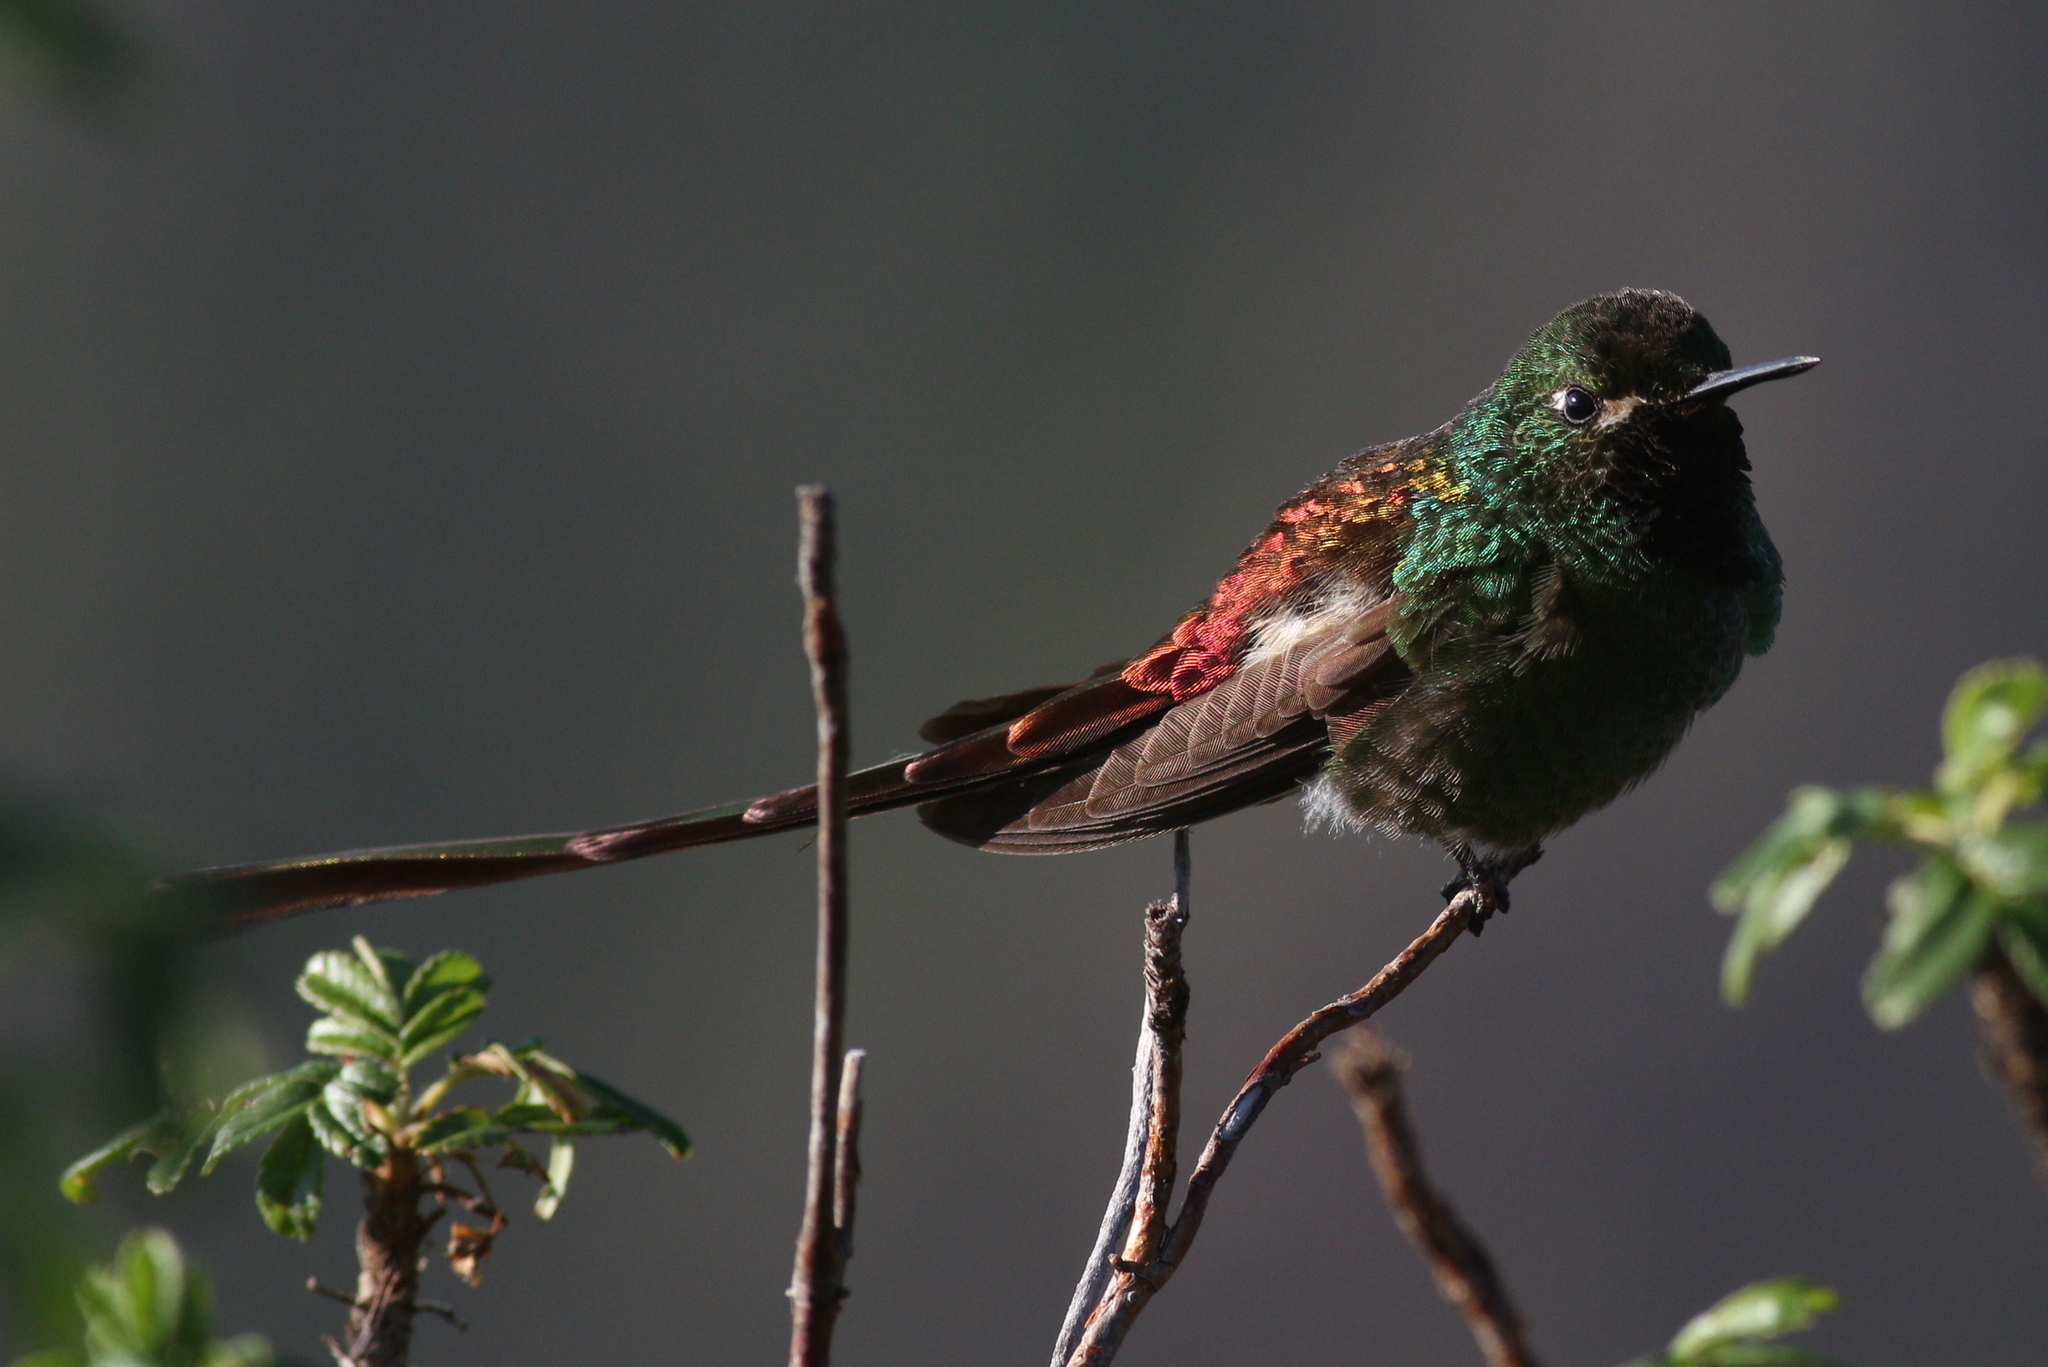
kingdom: Animalia
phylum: Chordata
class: Aves
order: Apodiformes
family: Trochilidae
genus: Sappho
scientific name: Sappho sparganurus
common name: Red-tailed comet
